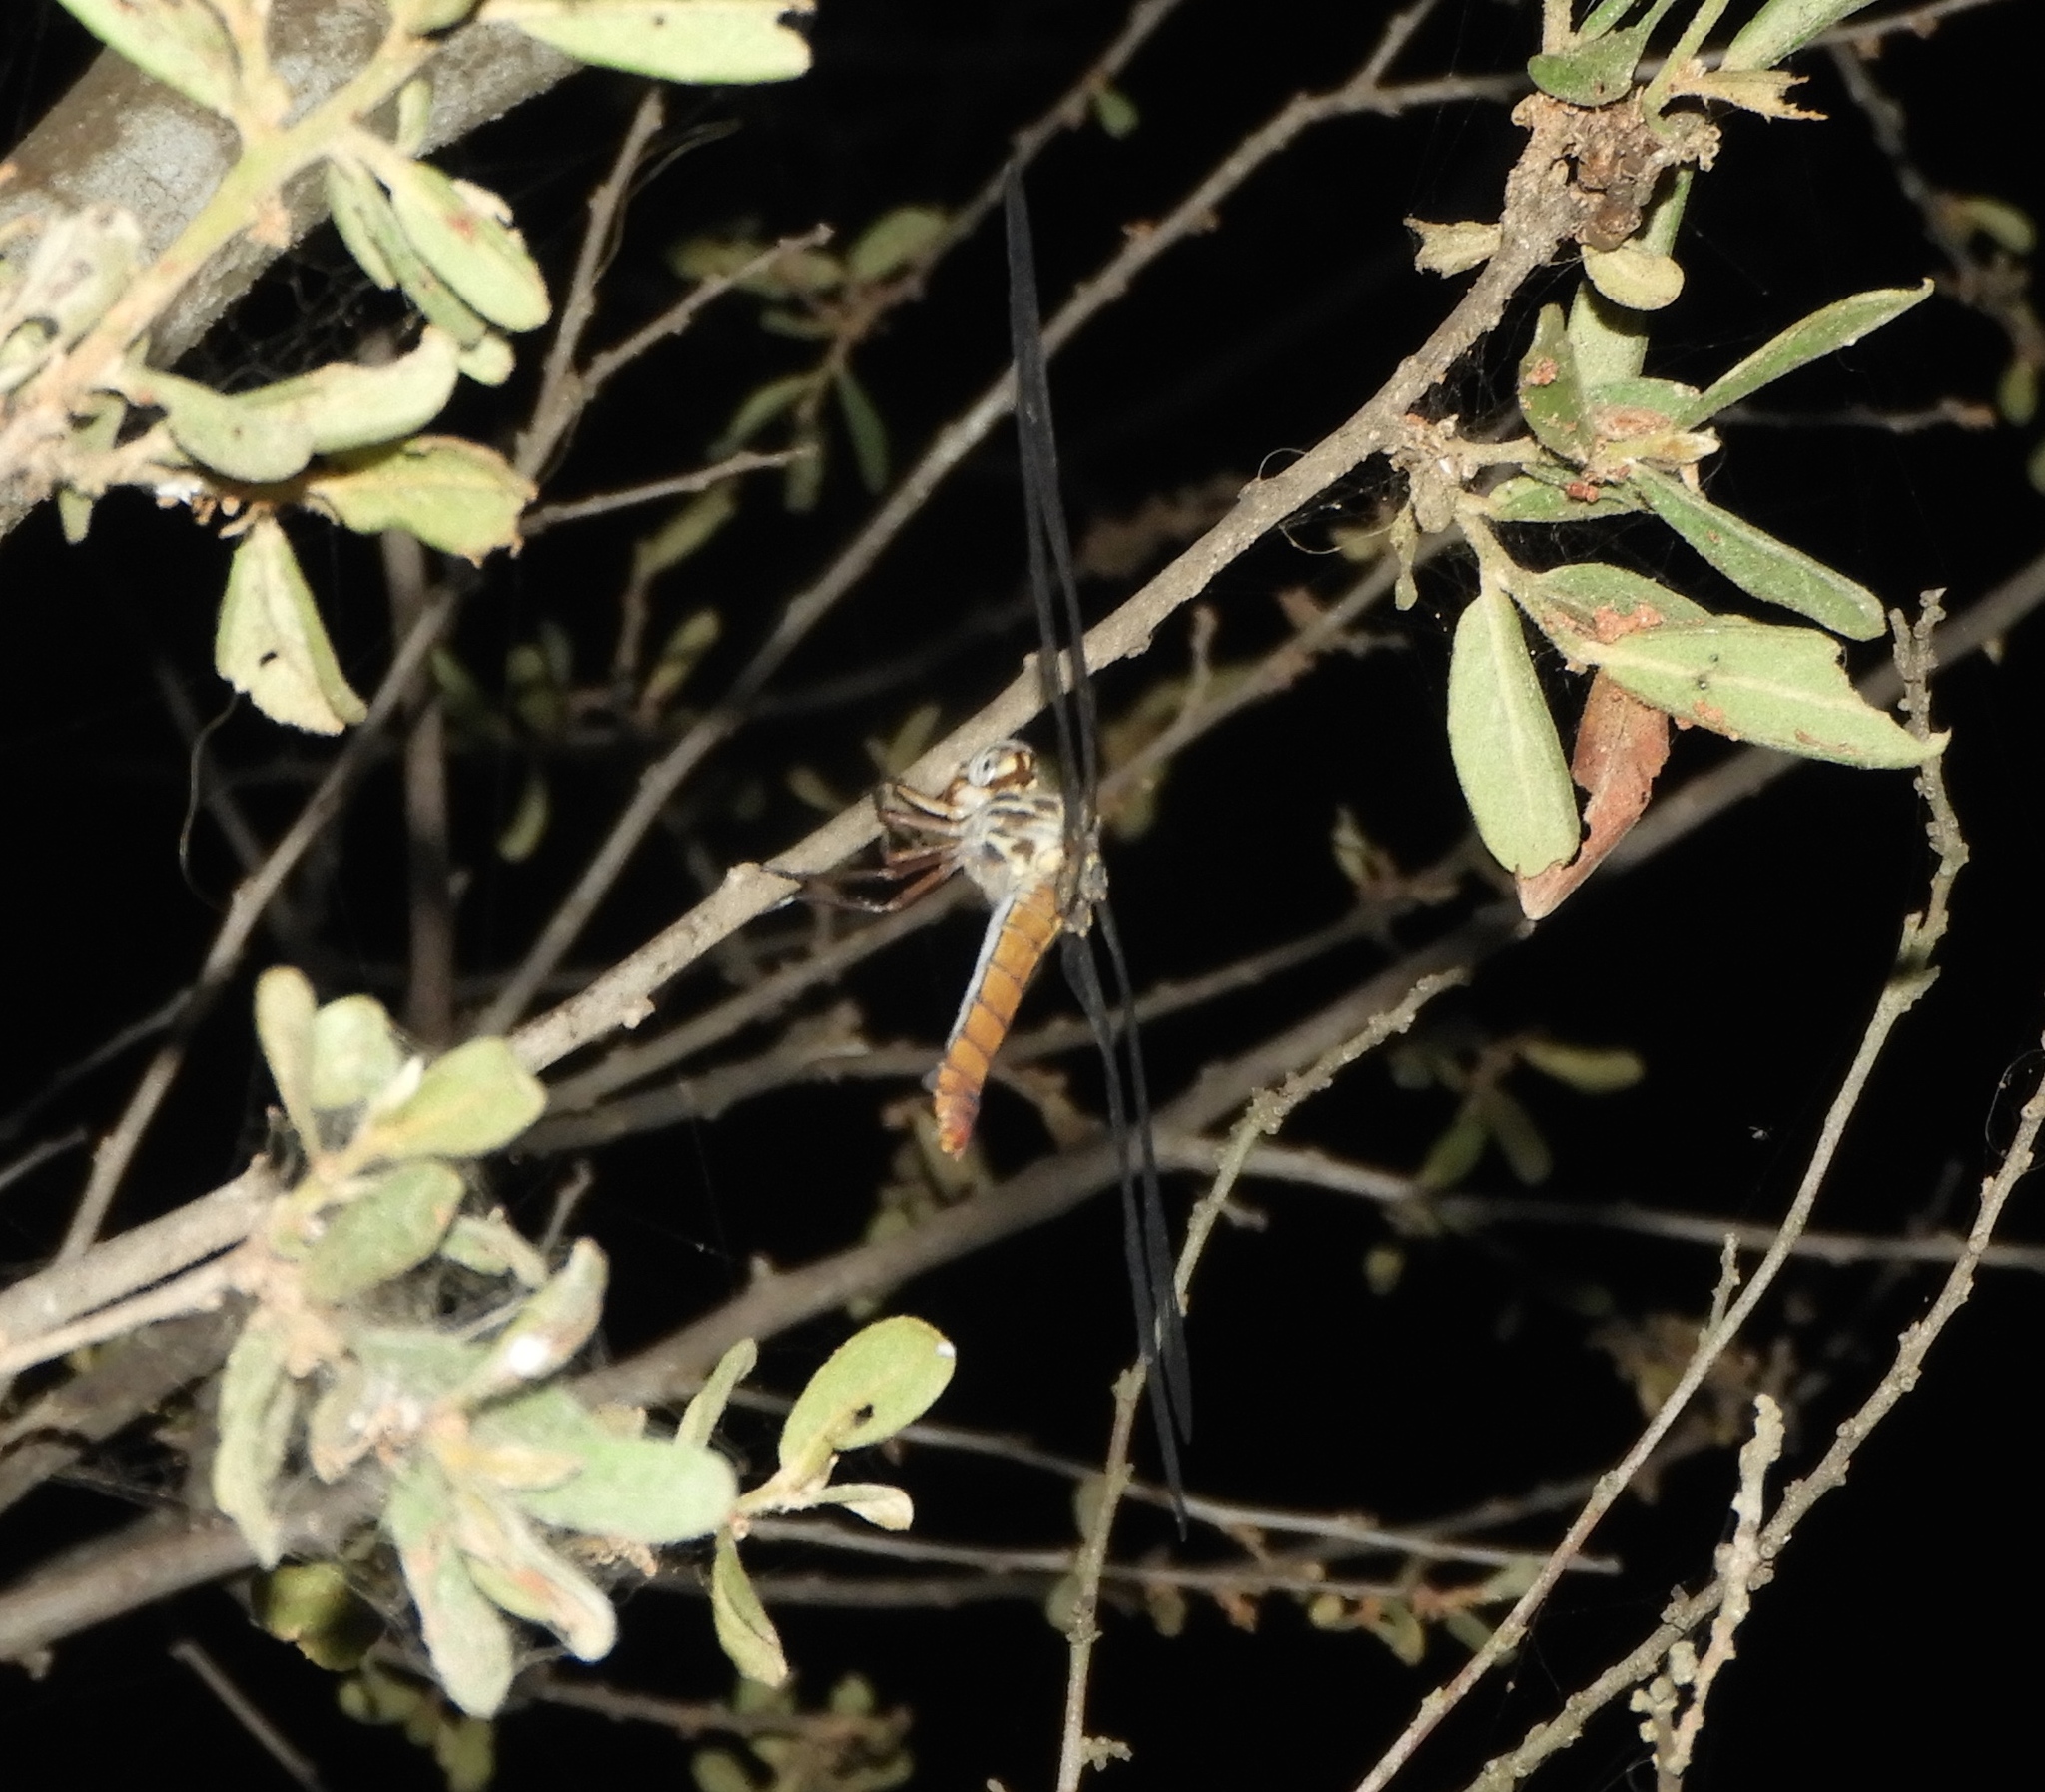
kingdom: Animalia
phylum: Arthropoda
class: Insecta
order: Odonata
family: Libellulidae
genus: Orthemis
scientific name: Orthemis ferruginea
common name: Roseate skimmer
